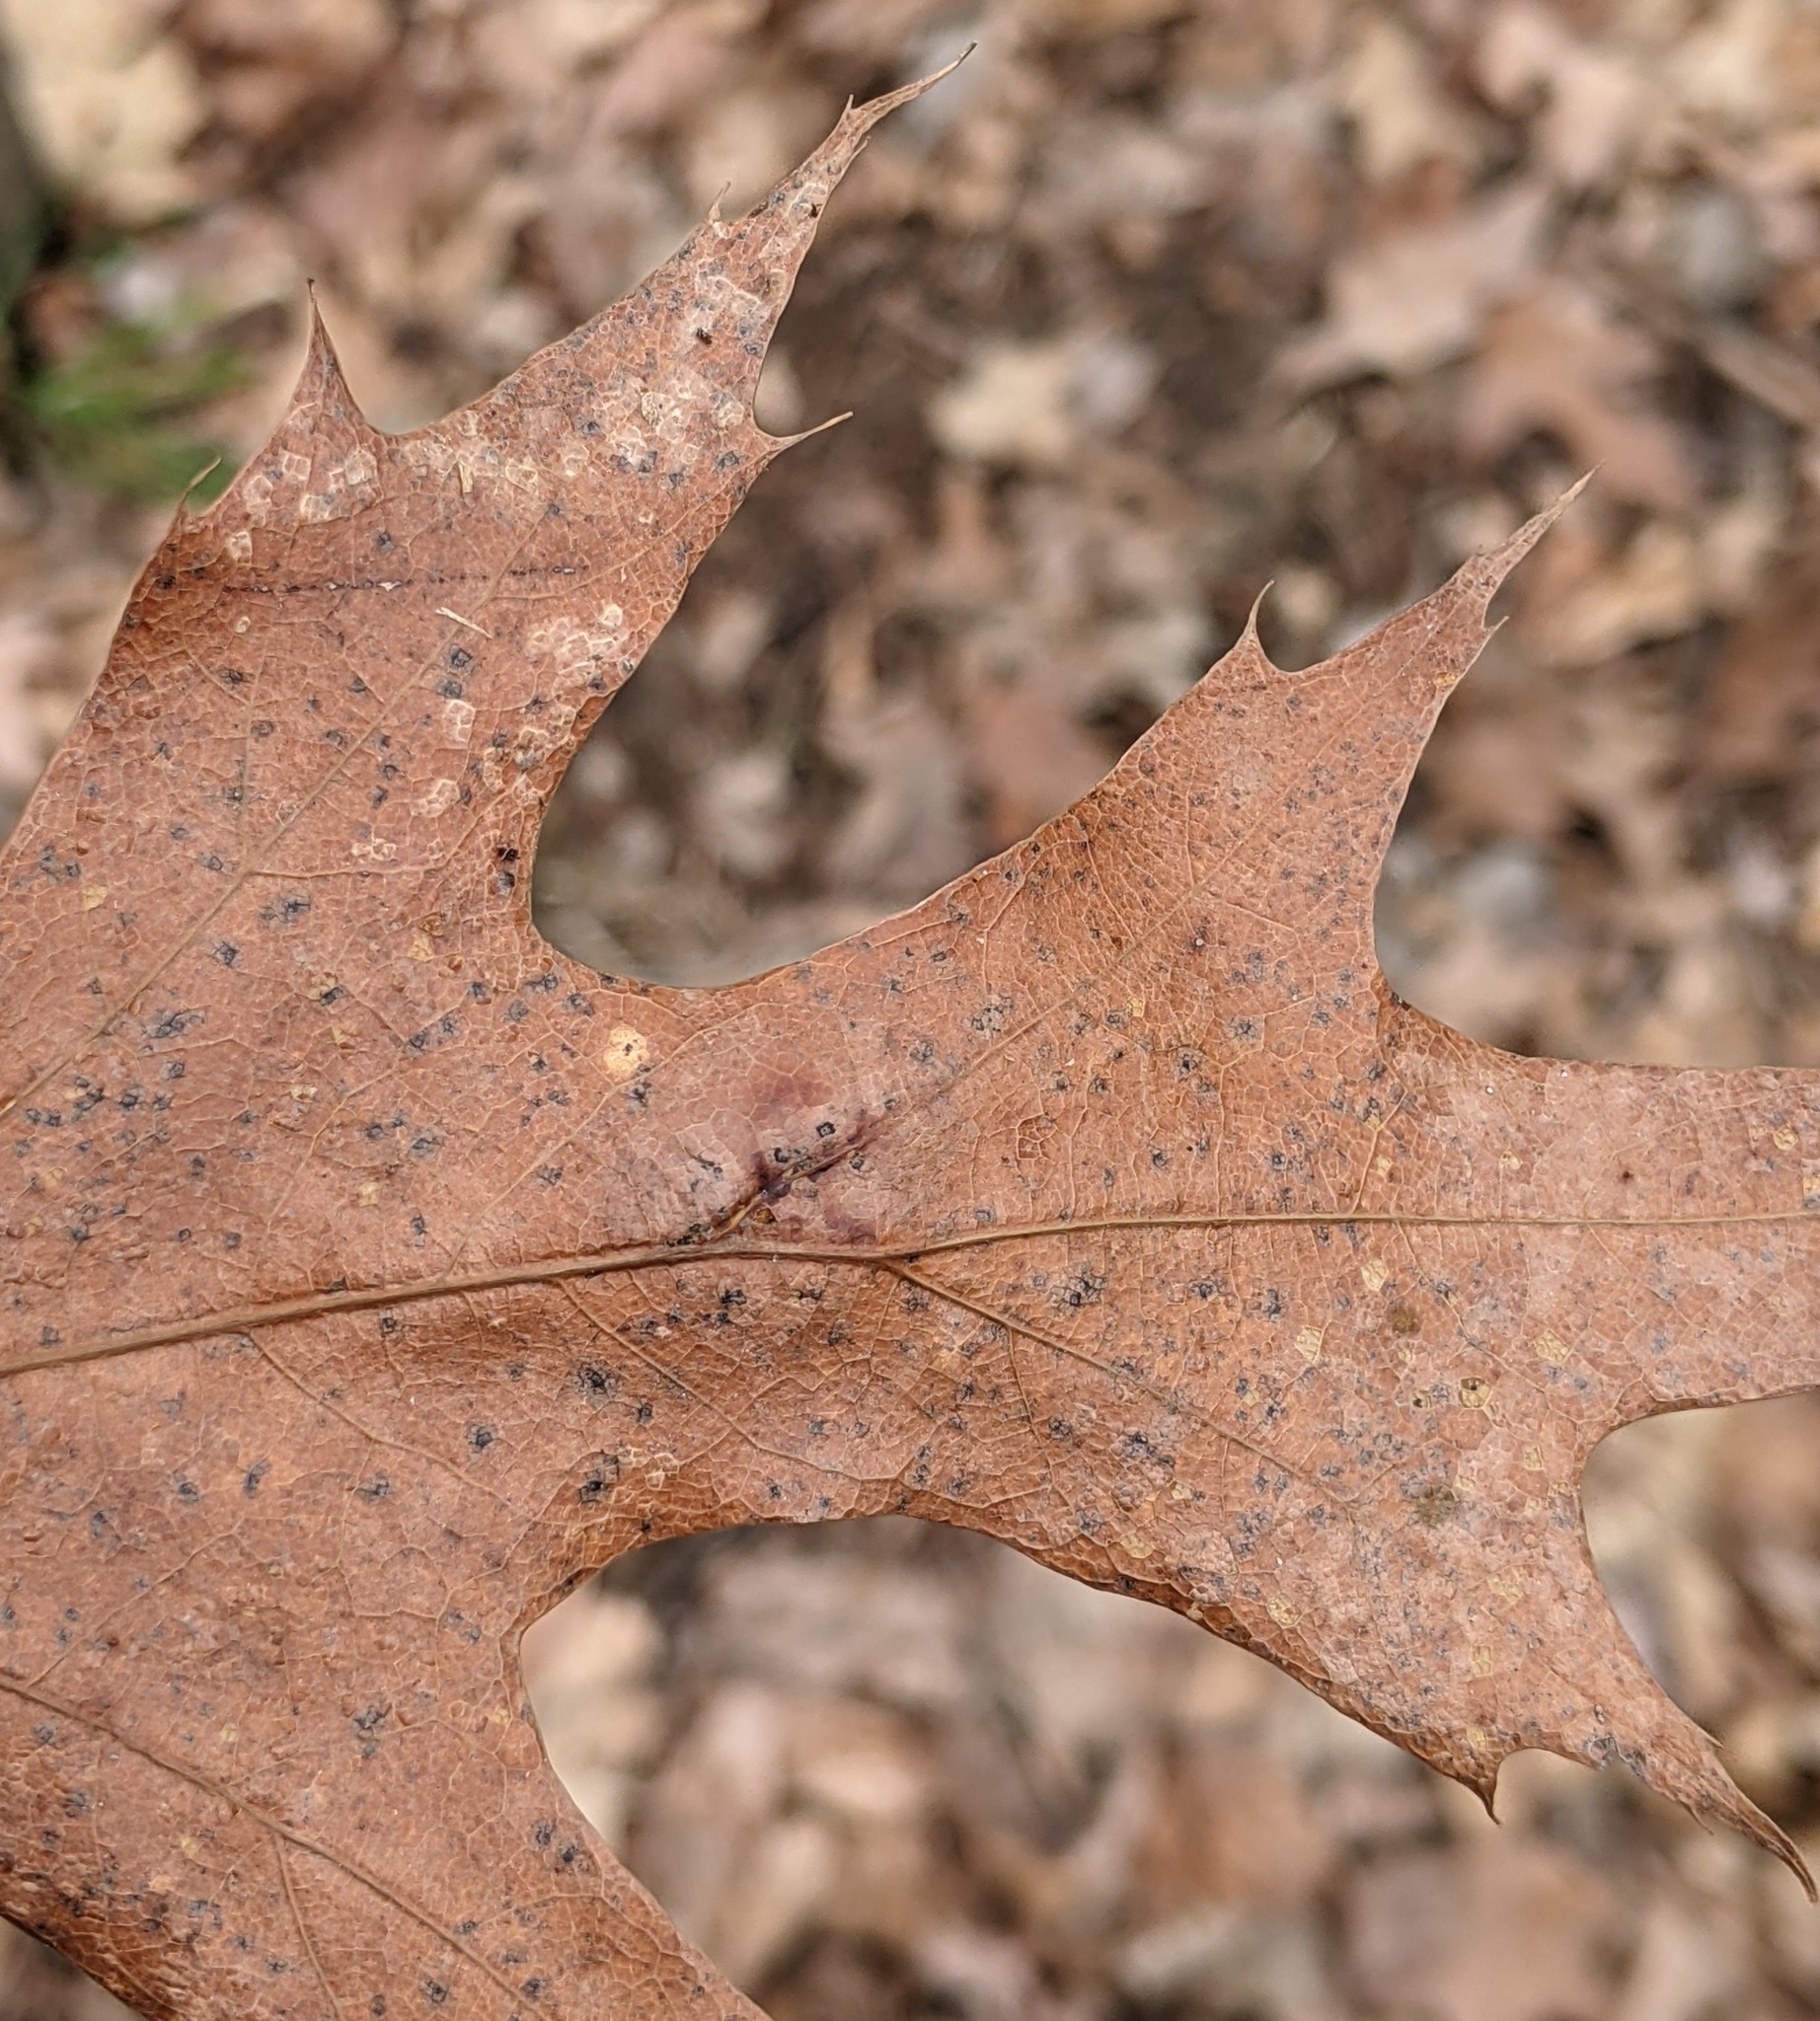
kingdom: Animalia
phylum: Arthropoda
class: Insecta
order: Hymenoptera
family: Cynipidae
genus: Callirhytis
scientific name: Callirhytis
